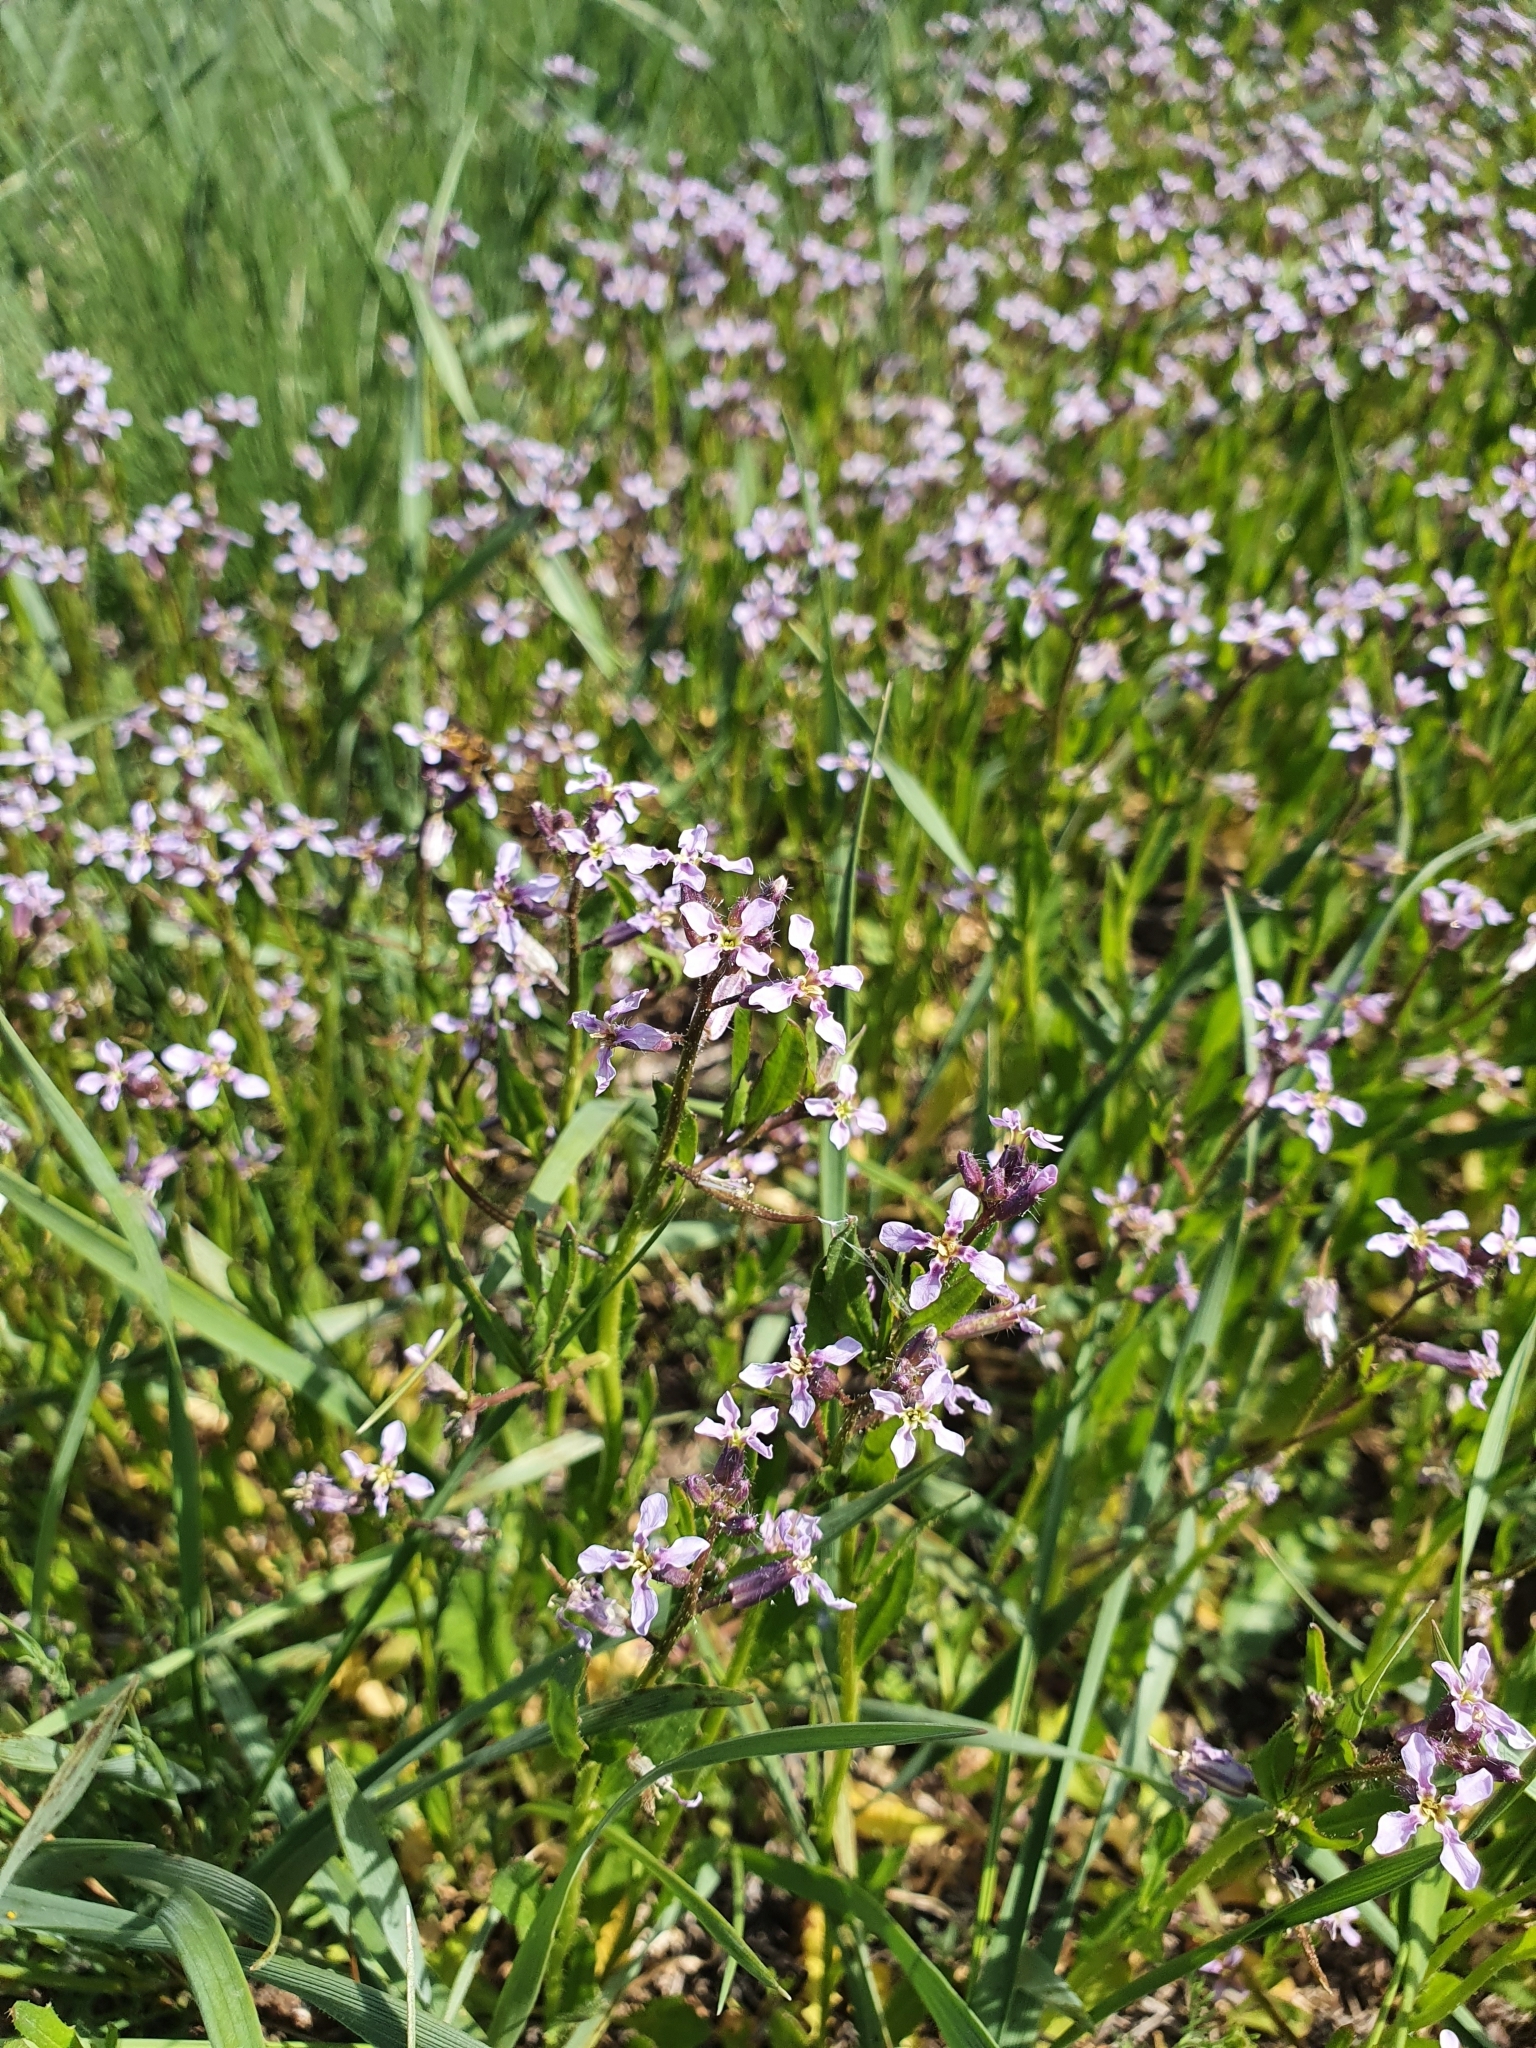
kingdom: Plantae
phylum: Tracheophyta
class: Magnoliopsida
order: Brassicales
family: Brassicaceae
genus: Chorispora
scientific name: Chorispora tenella
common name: Crossflower
